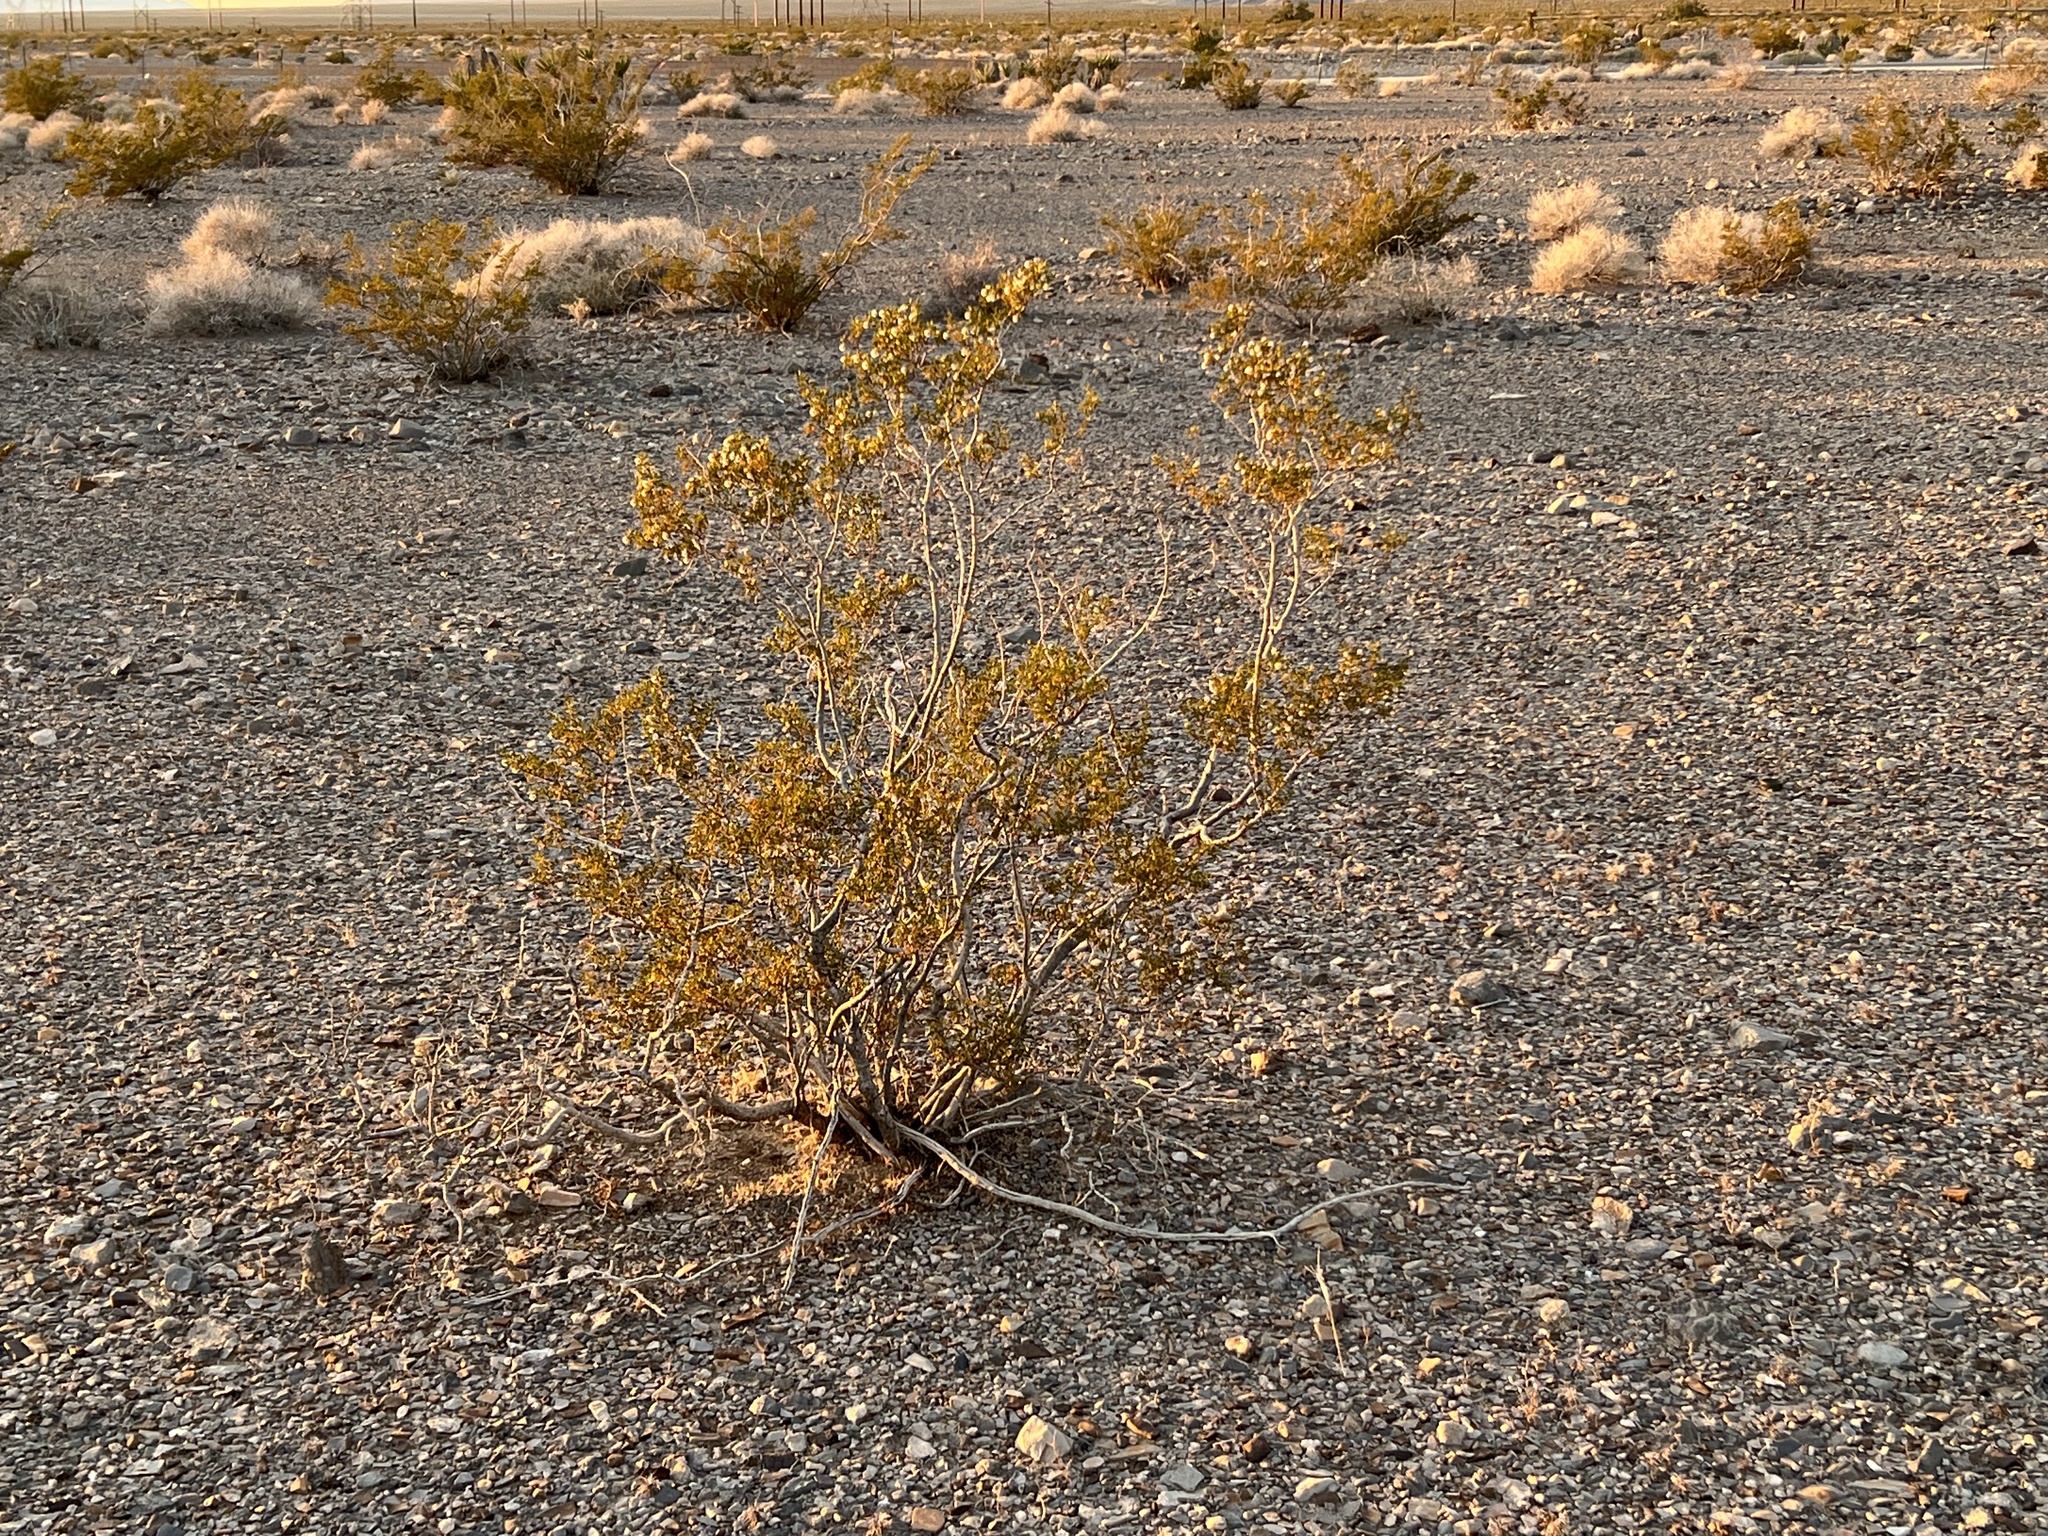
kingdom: Plantae
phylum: Tracheophyta
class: Magnoliopsida
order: Zygophyllales
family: Zygophyllaceae
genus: Larrea
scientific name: Larrea tridentata
